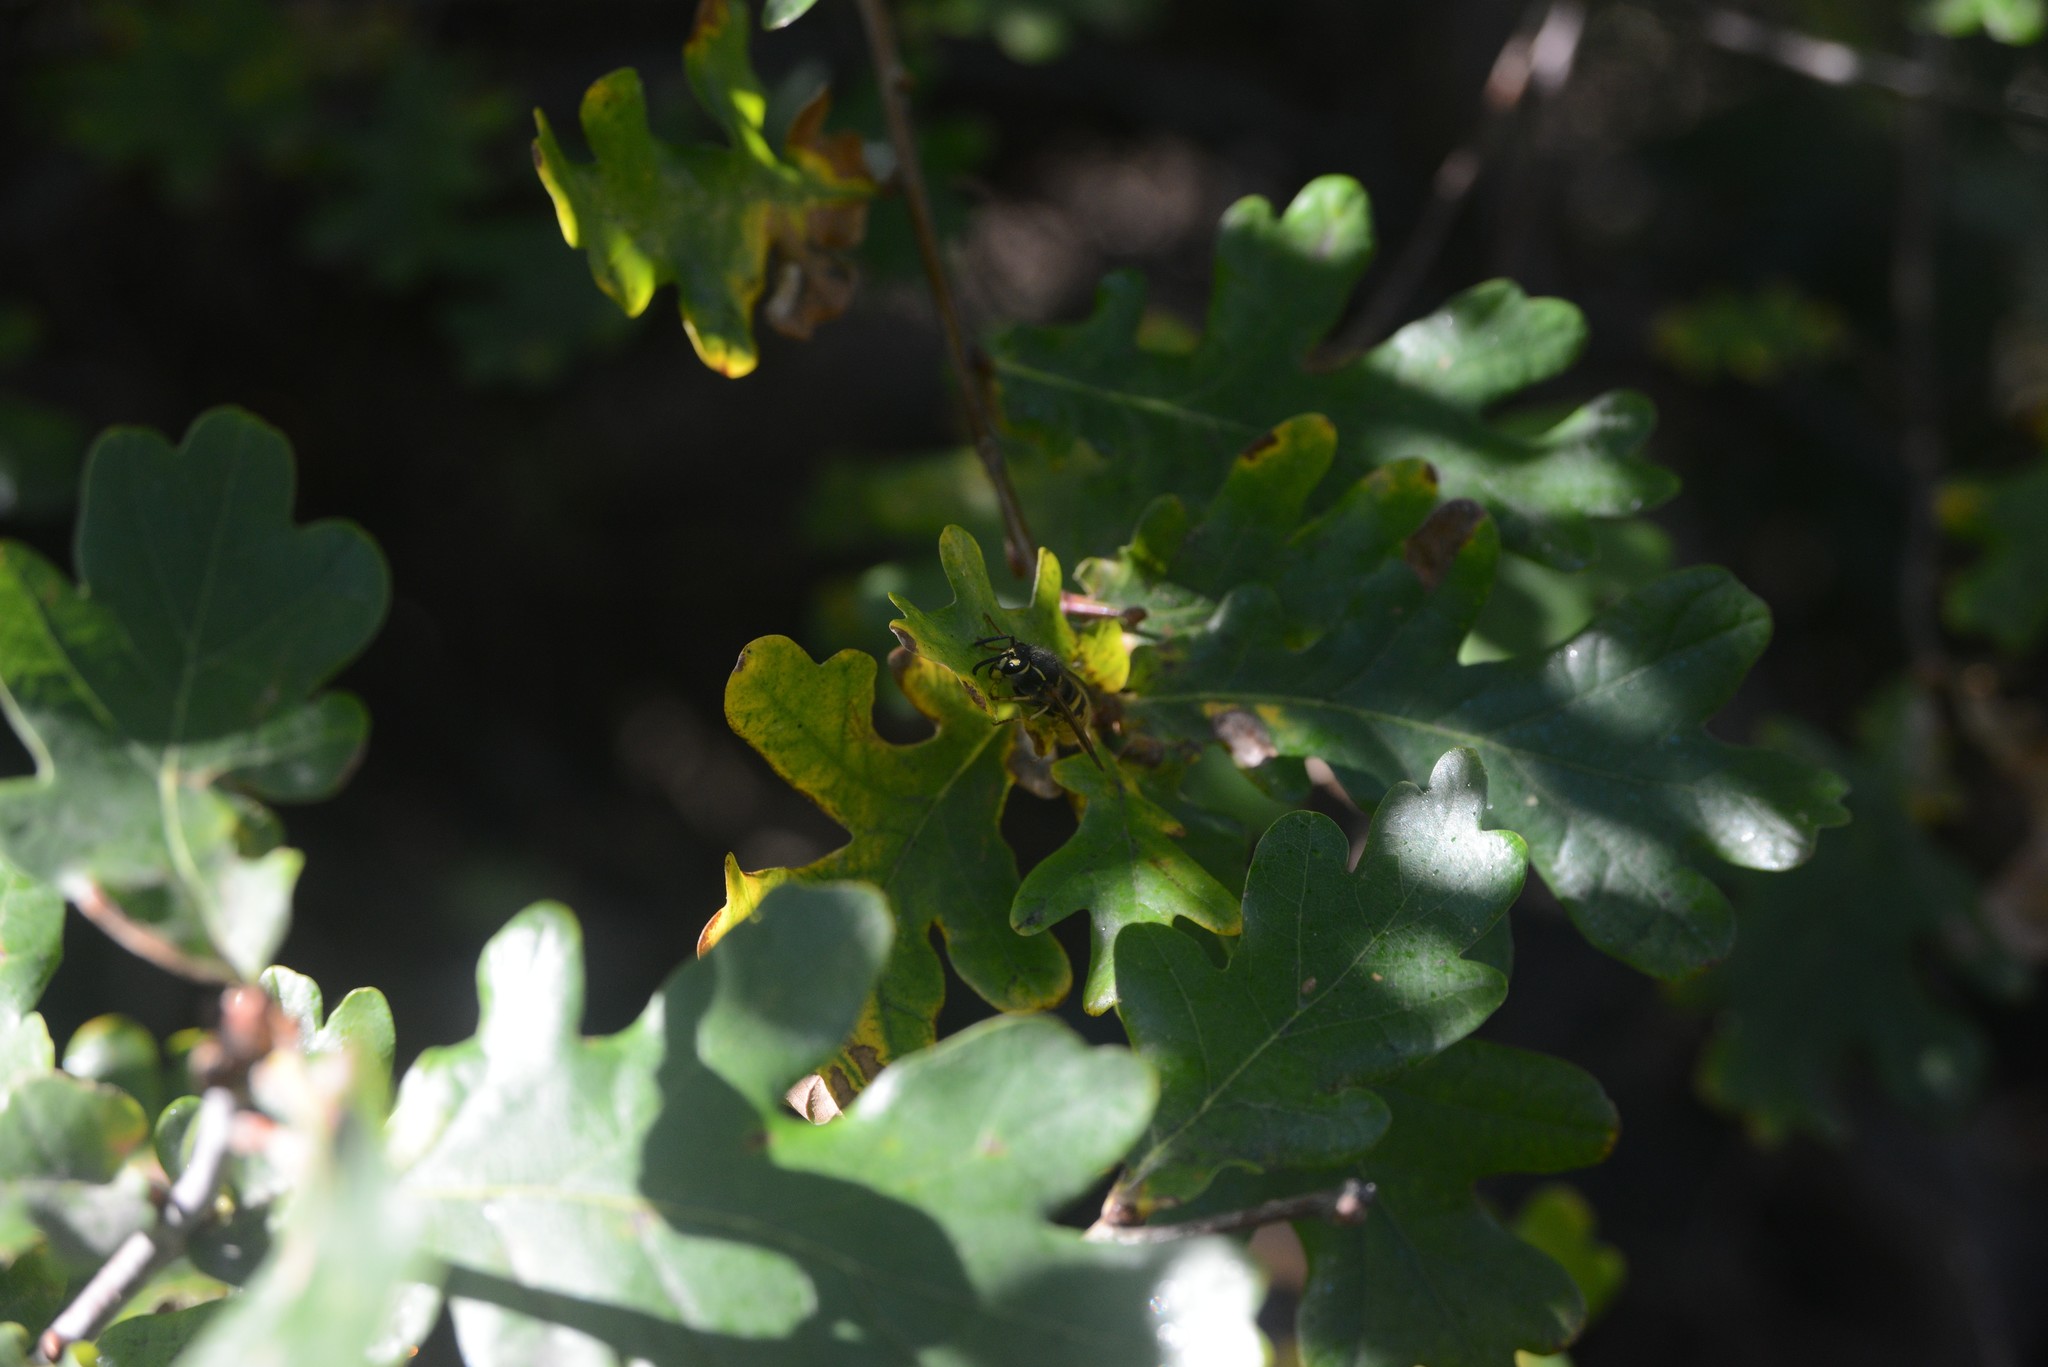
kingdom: Animalia
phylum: Arthropoda
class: Insecta
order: Hymenoptera
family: Vespidae
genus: Vespula
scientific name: Vespula vulgaris
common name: Common wasp
